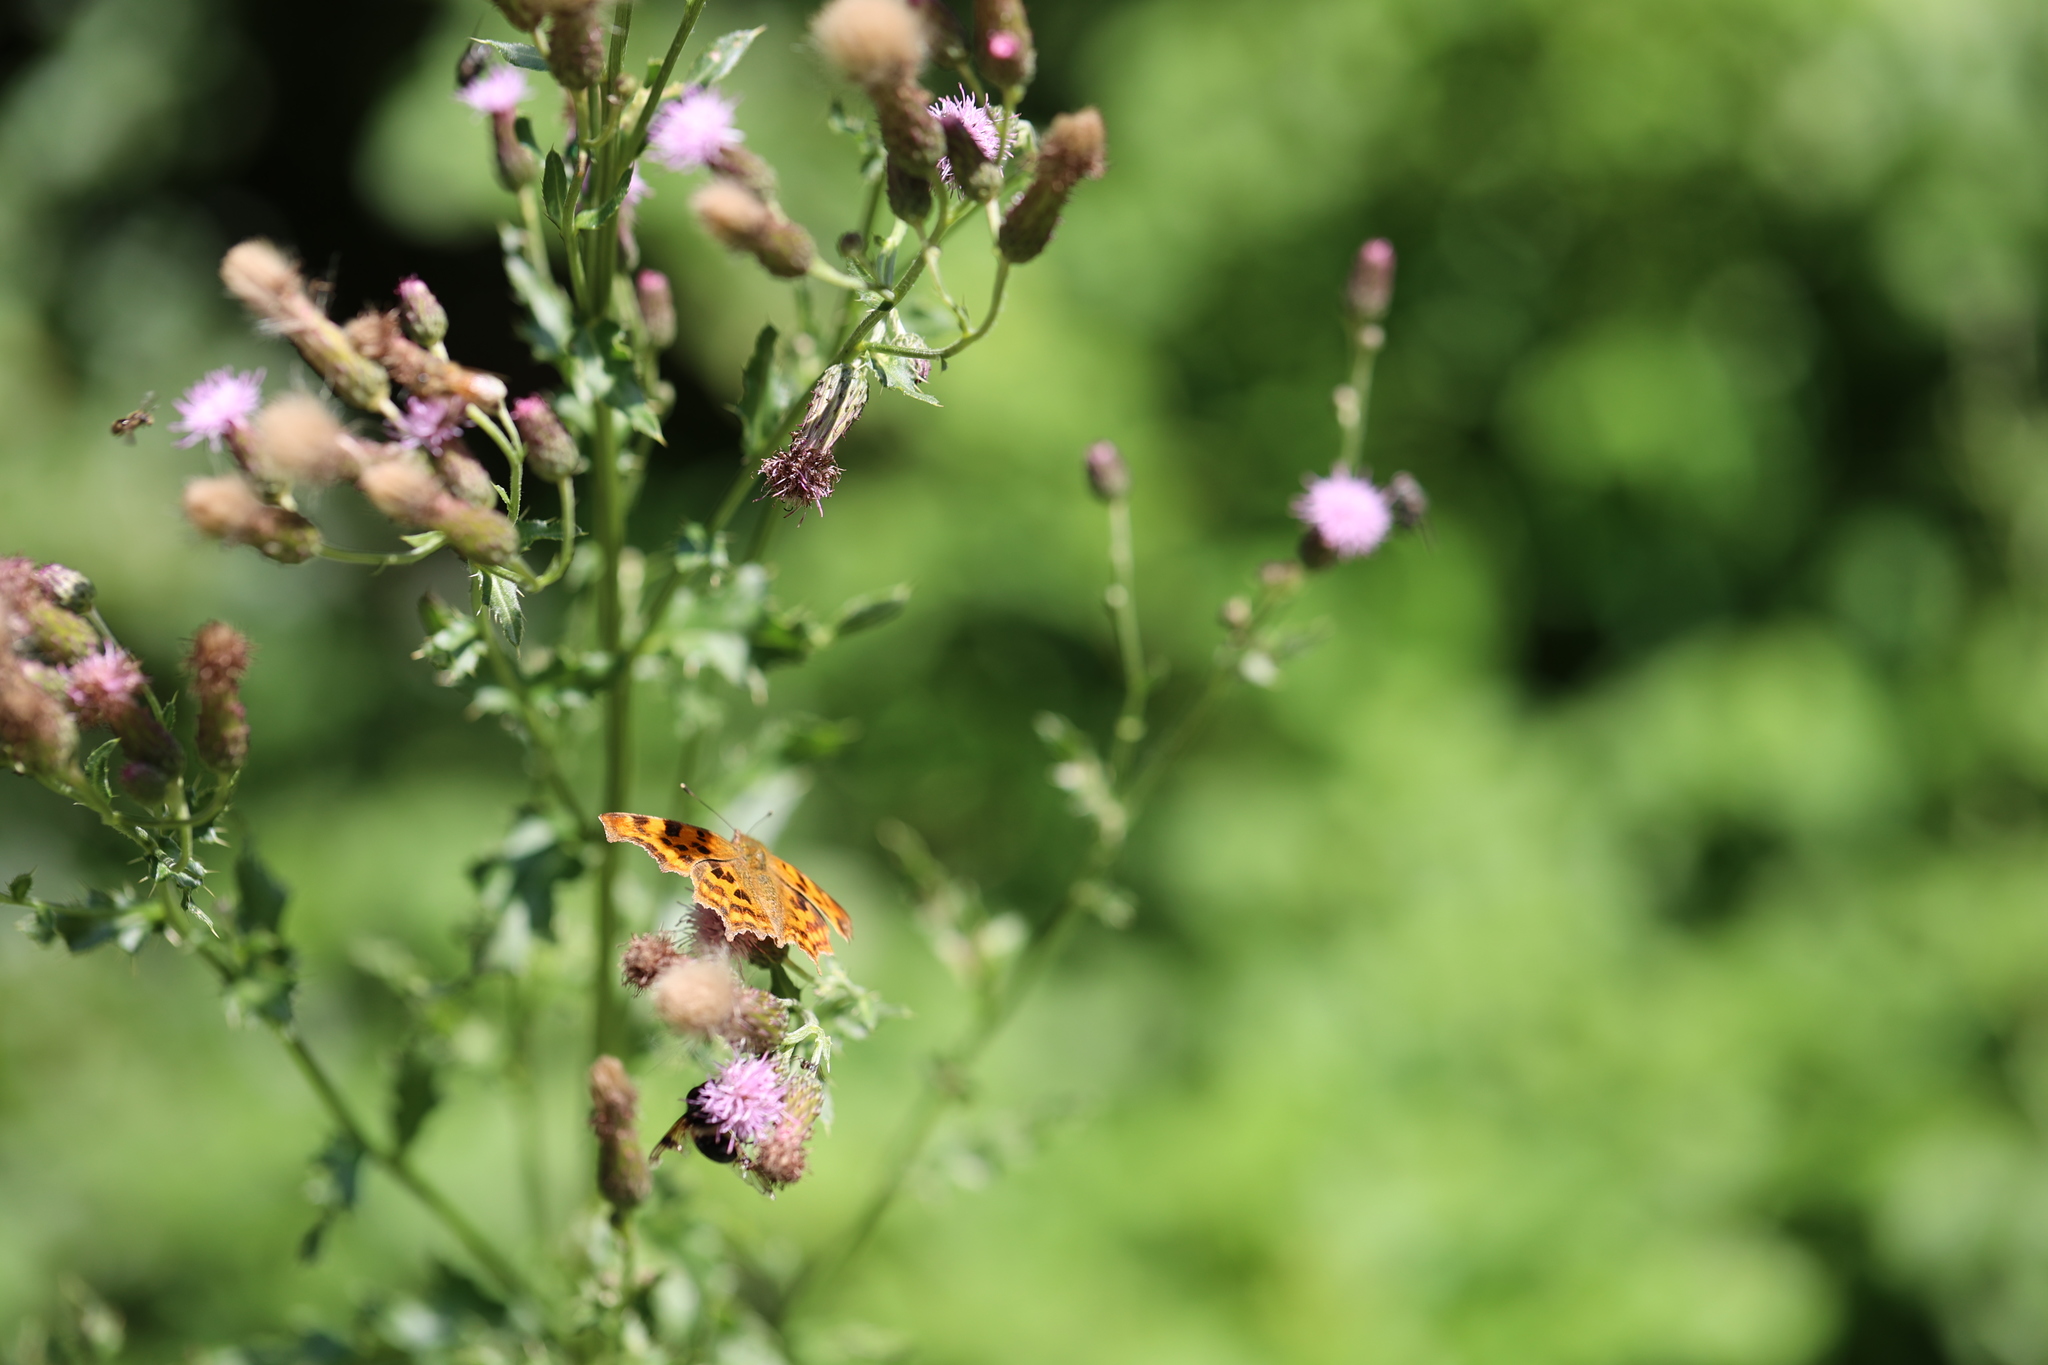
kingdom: Animalia
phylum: Arthropoda
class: Insecta
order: Lepidoptera
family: Nymphalidae
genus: Polygonia
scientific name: Polygonia c-album
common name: Comma
